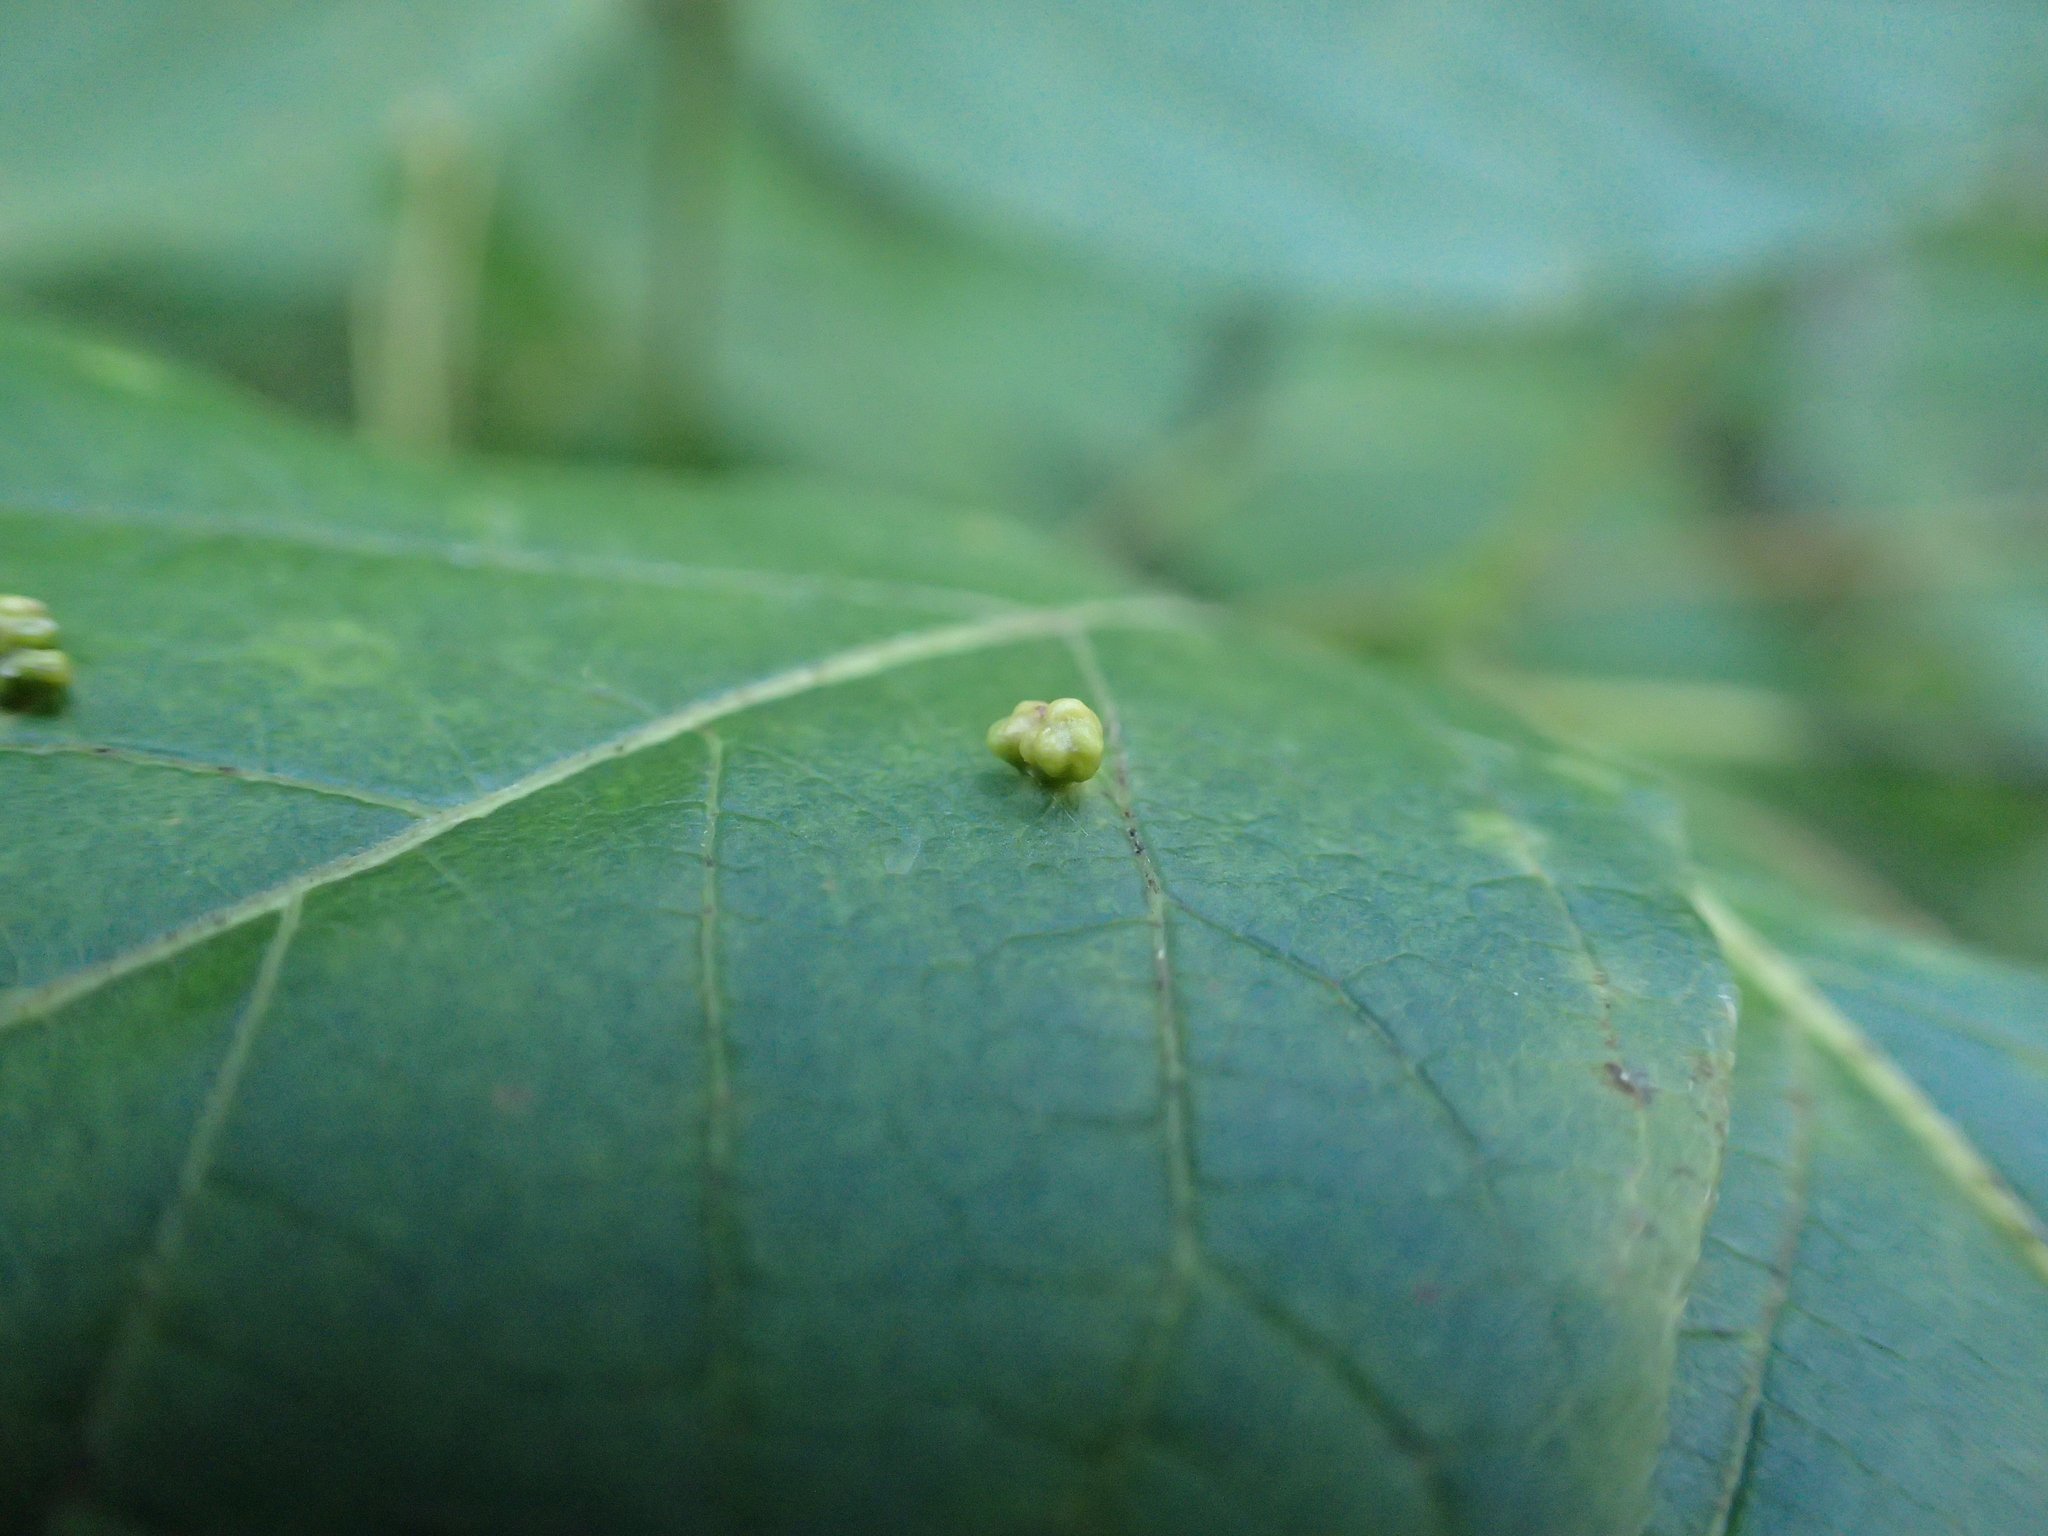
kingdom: Animalia
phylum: Arthropoda
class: Arachnida
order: Trombidiformes
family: Eriophyidae
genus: Aceria
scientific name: Aceria
